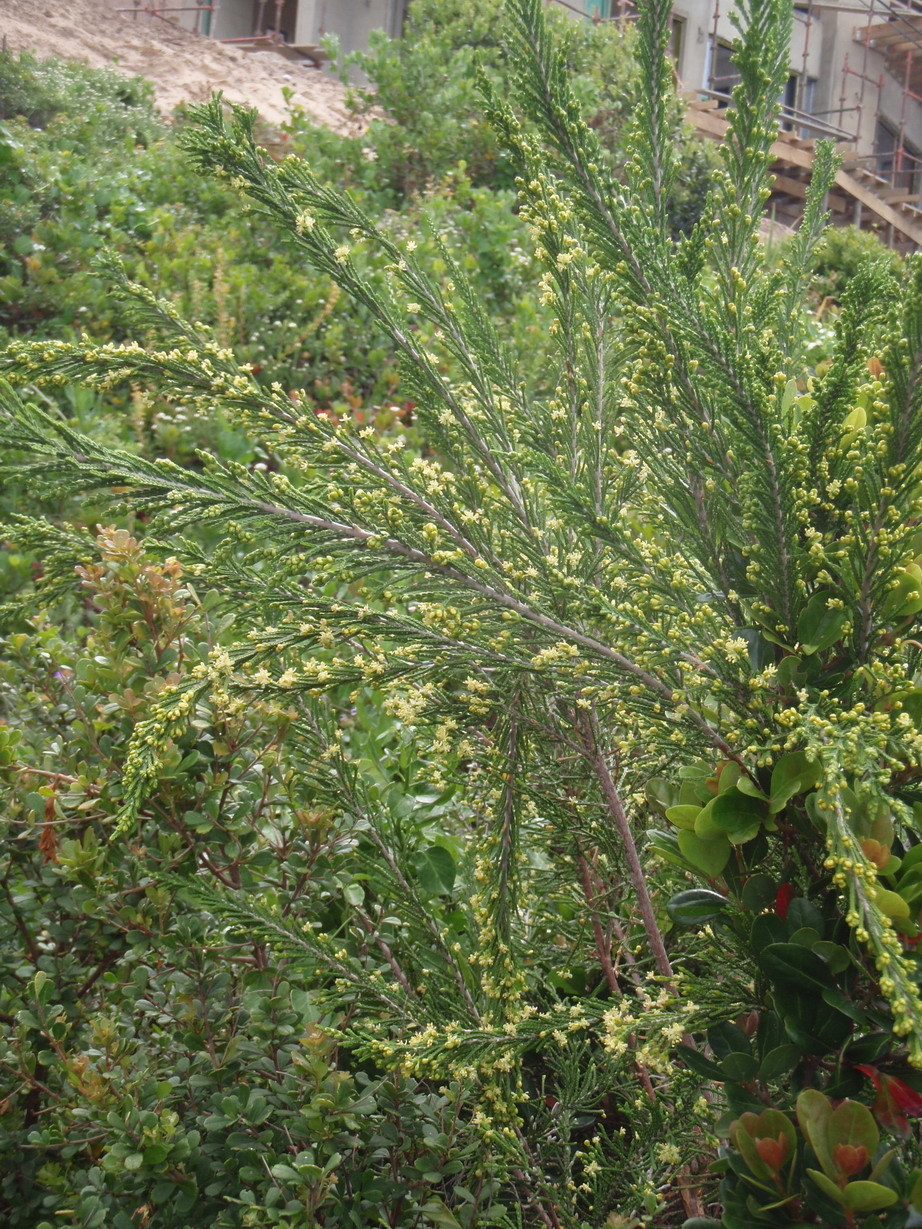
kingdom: Plantae
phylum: Tracheophyta
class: Magnoliopsida
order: Malvales
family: Thymelaeaceae
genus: Passerina
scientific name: Passerina rigida
